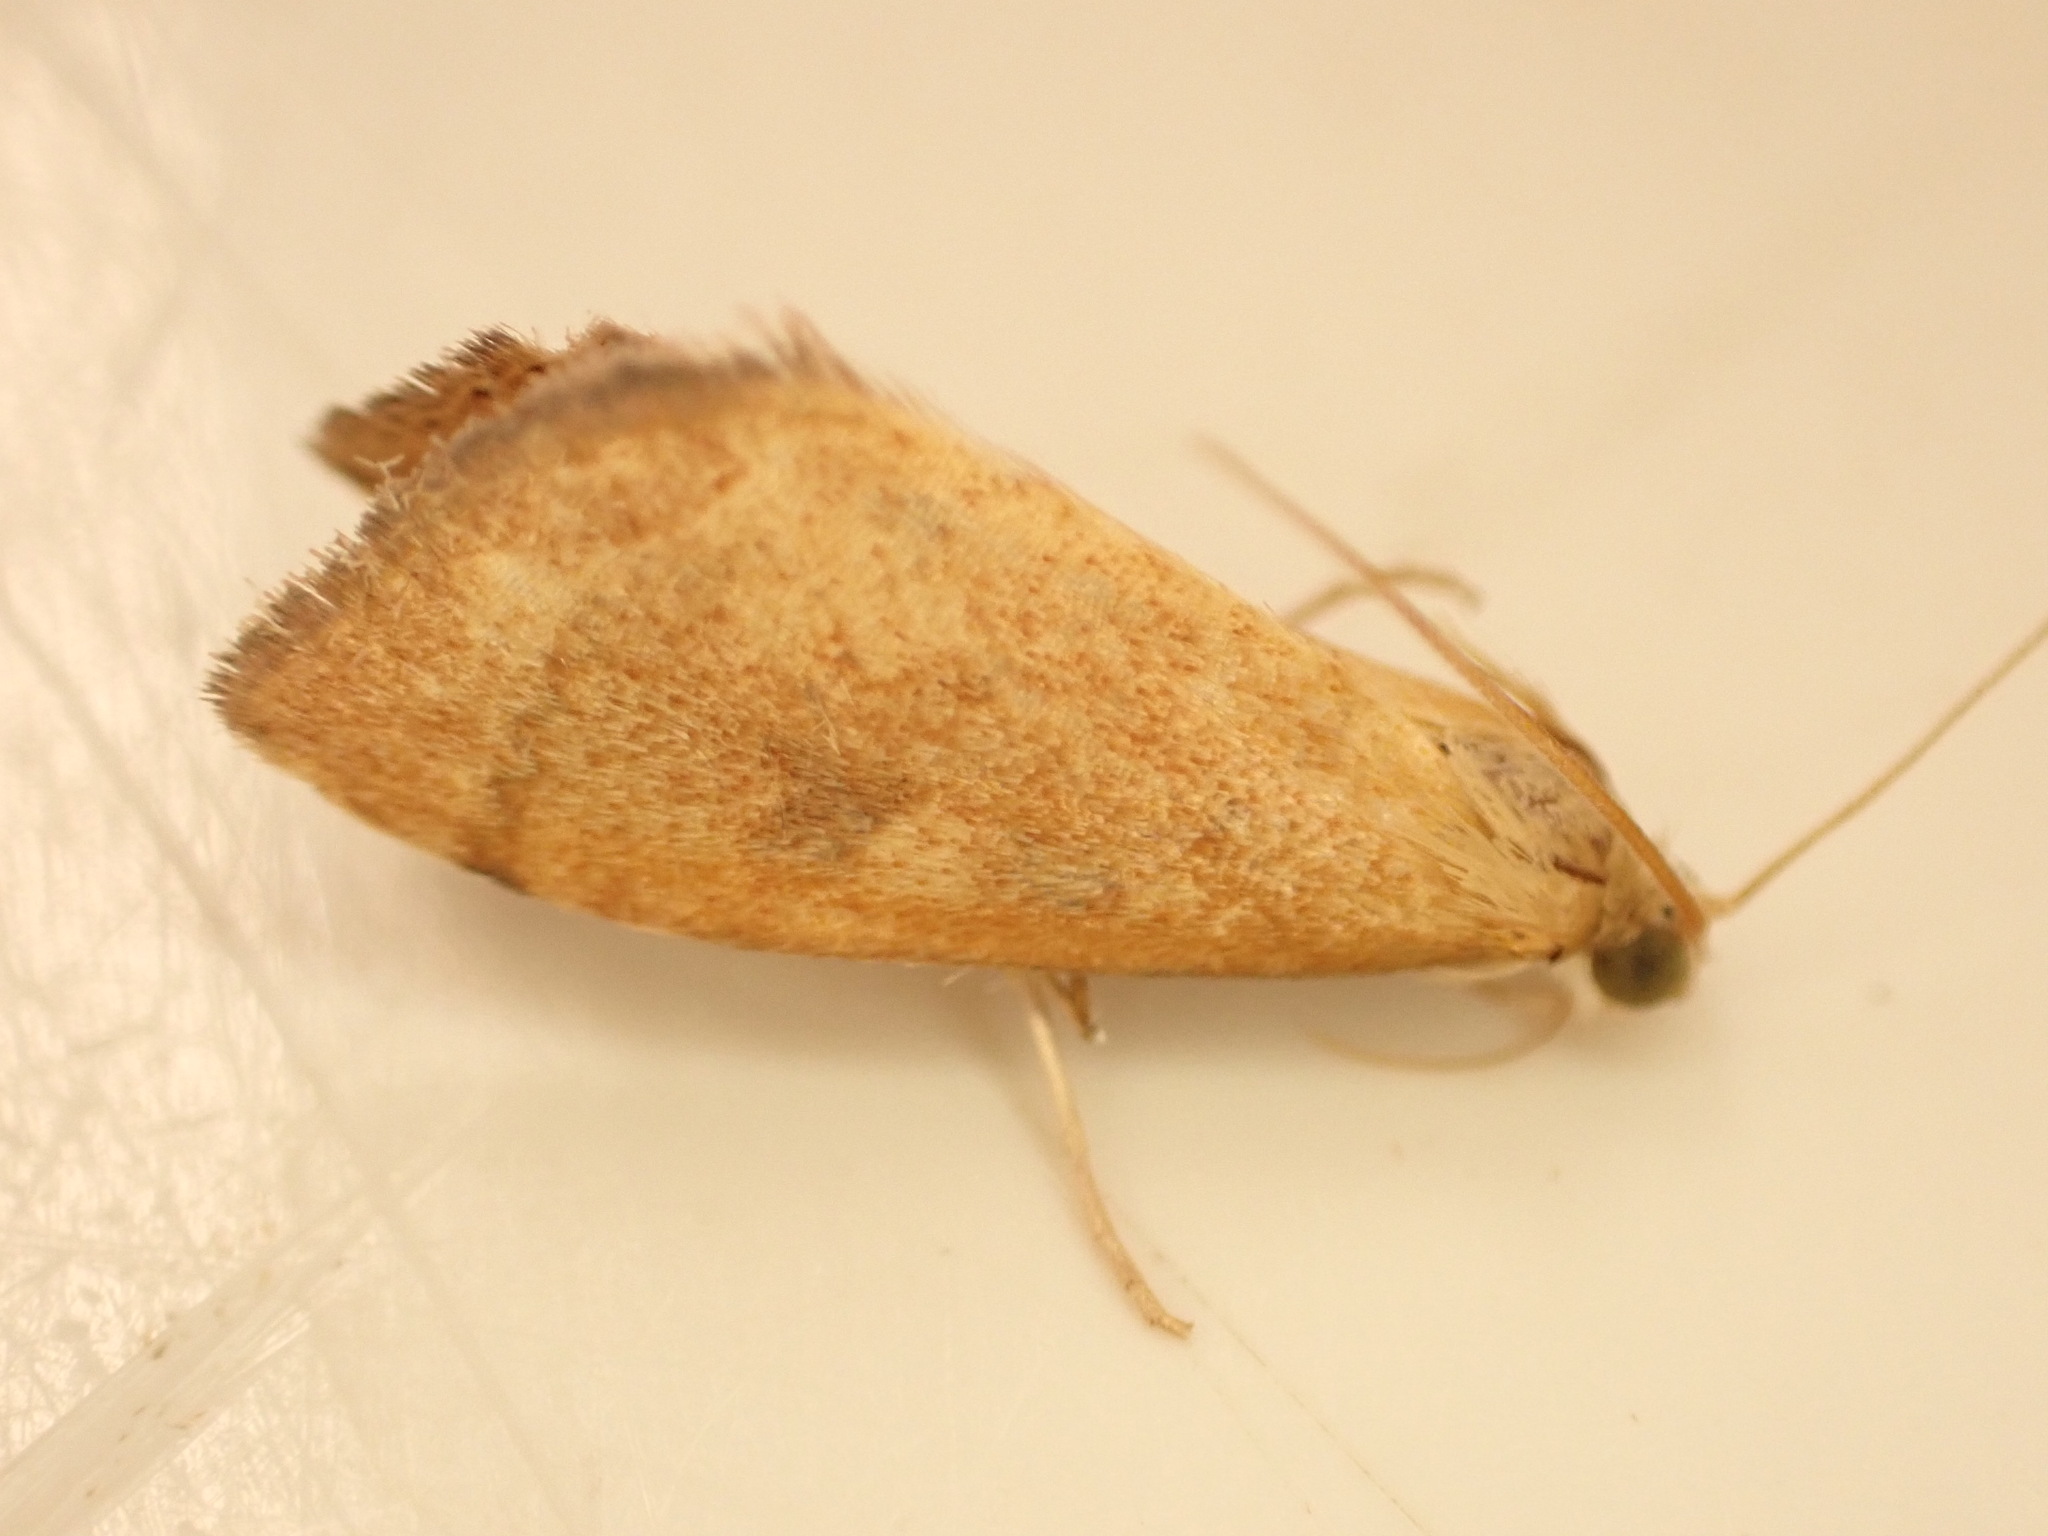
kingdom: Animalia
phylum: Arthropoda
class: Insecta
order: Lepidoptera
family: Crambidae
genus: Udea
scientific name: Udea Mnesictena flavidalis
